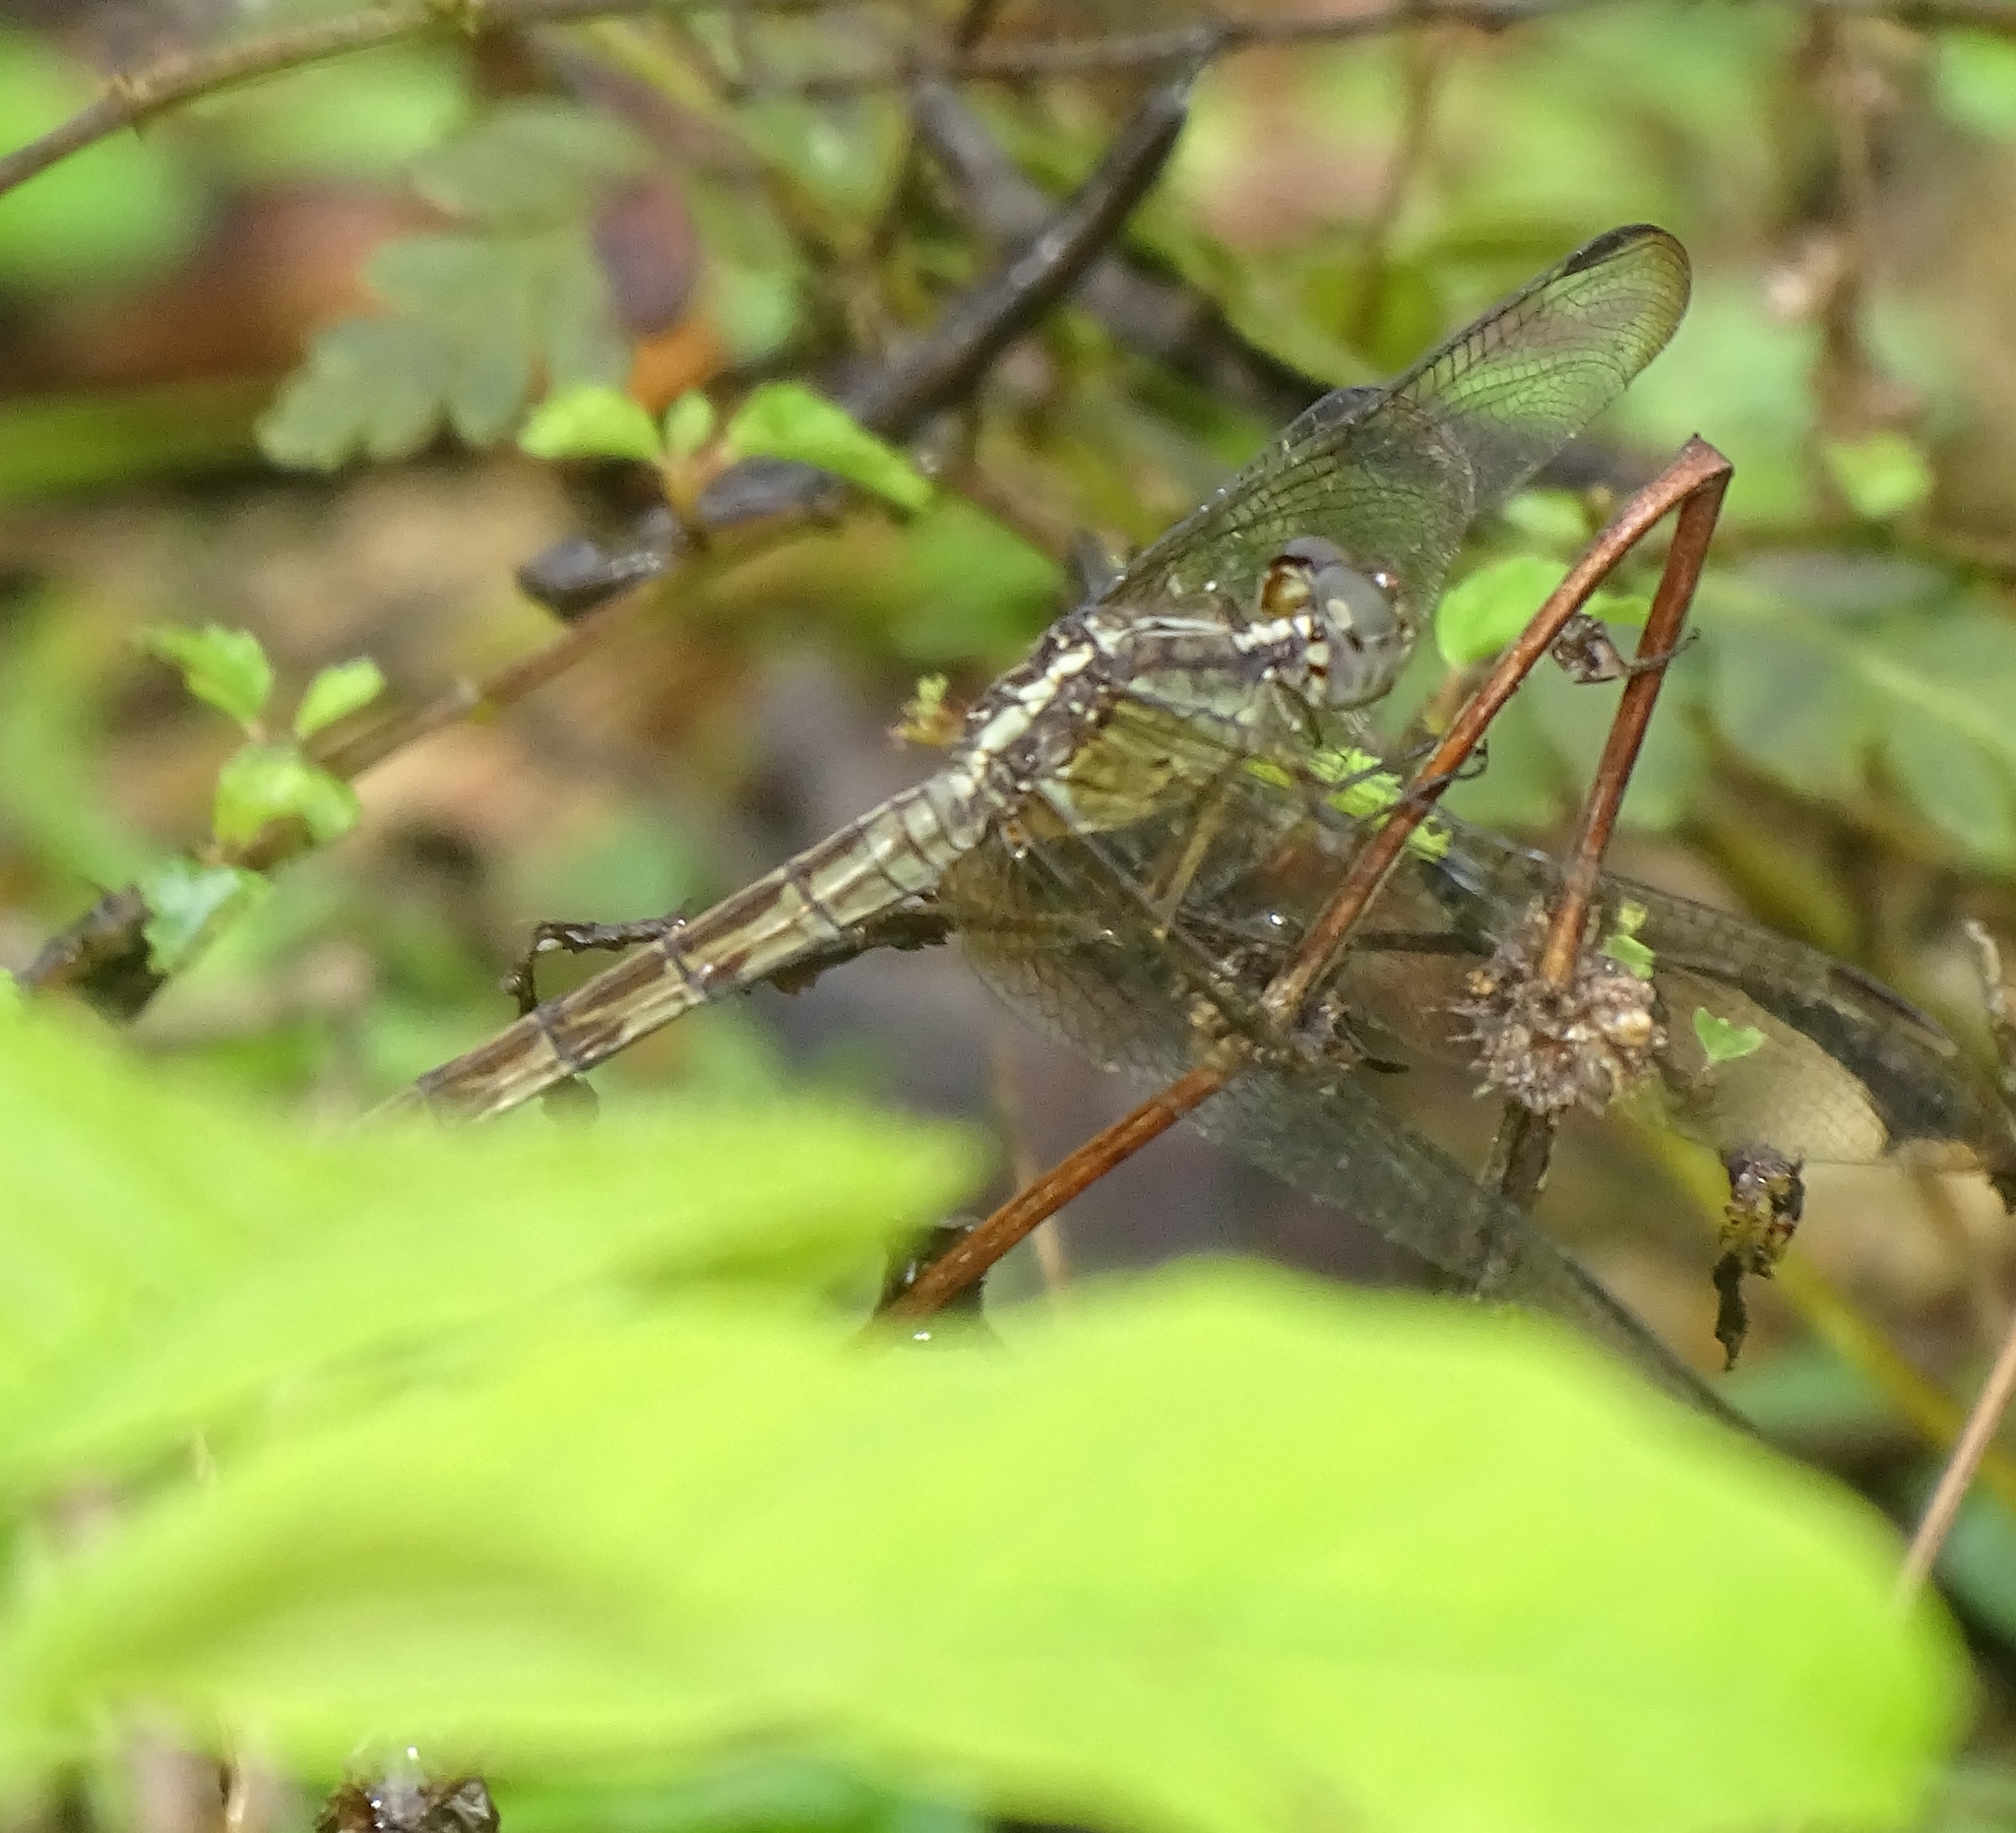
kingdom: Animalia
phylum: Arthropoda
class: Insecta
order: Odonata
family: Libellulidae
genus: Erythrodiplax
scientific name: Erythrodiplax umbrata
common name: Band-winged dragonlet
